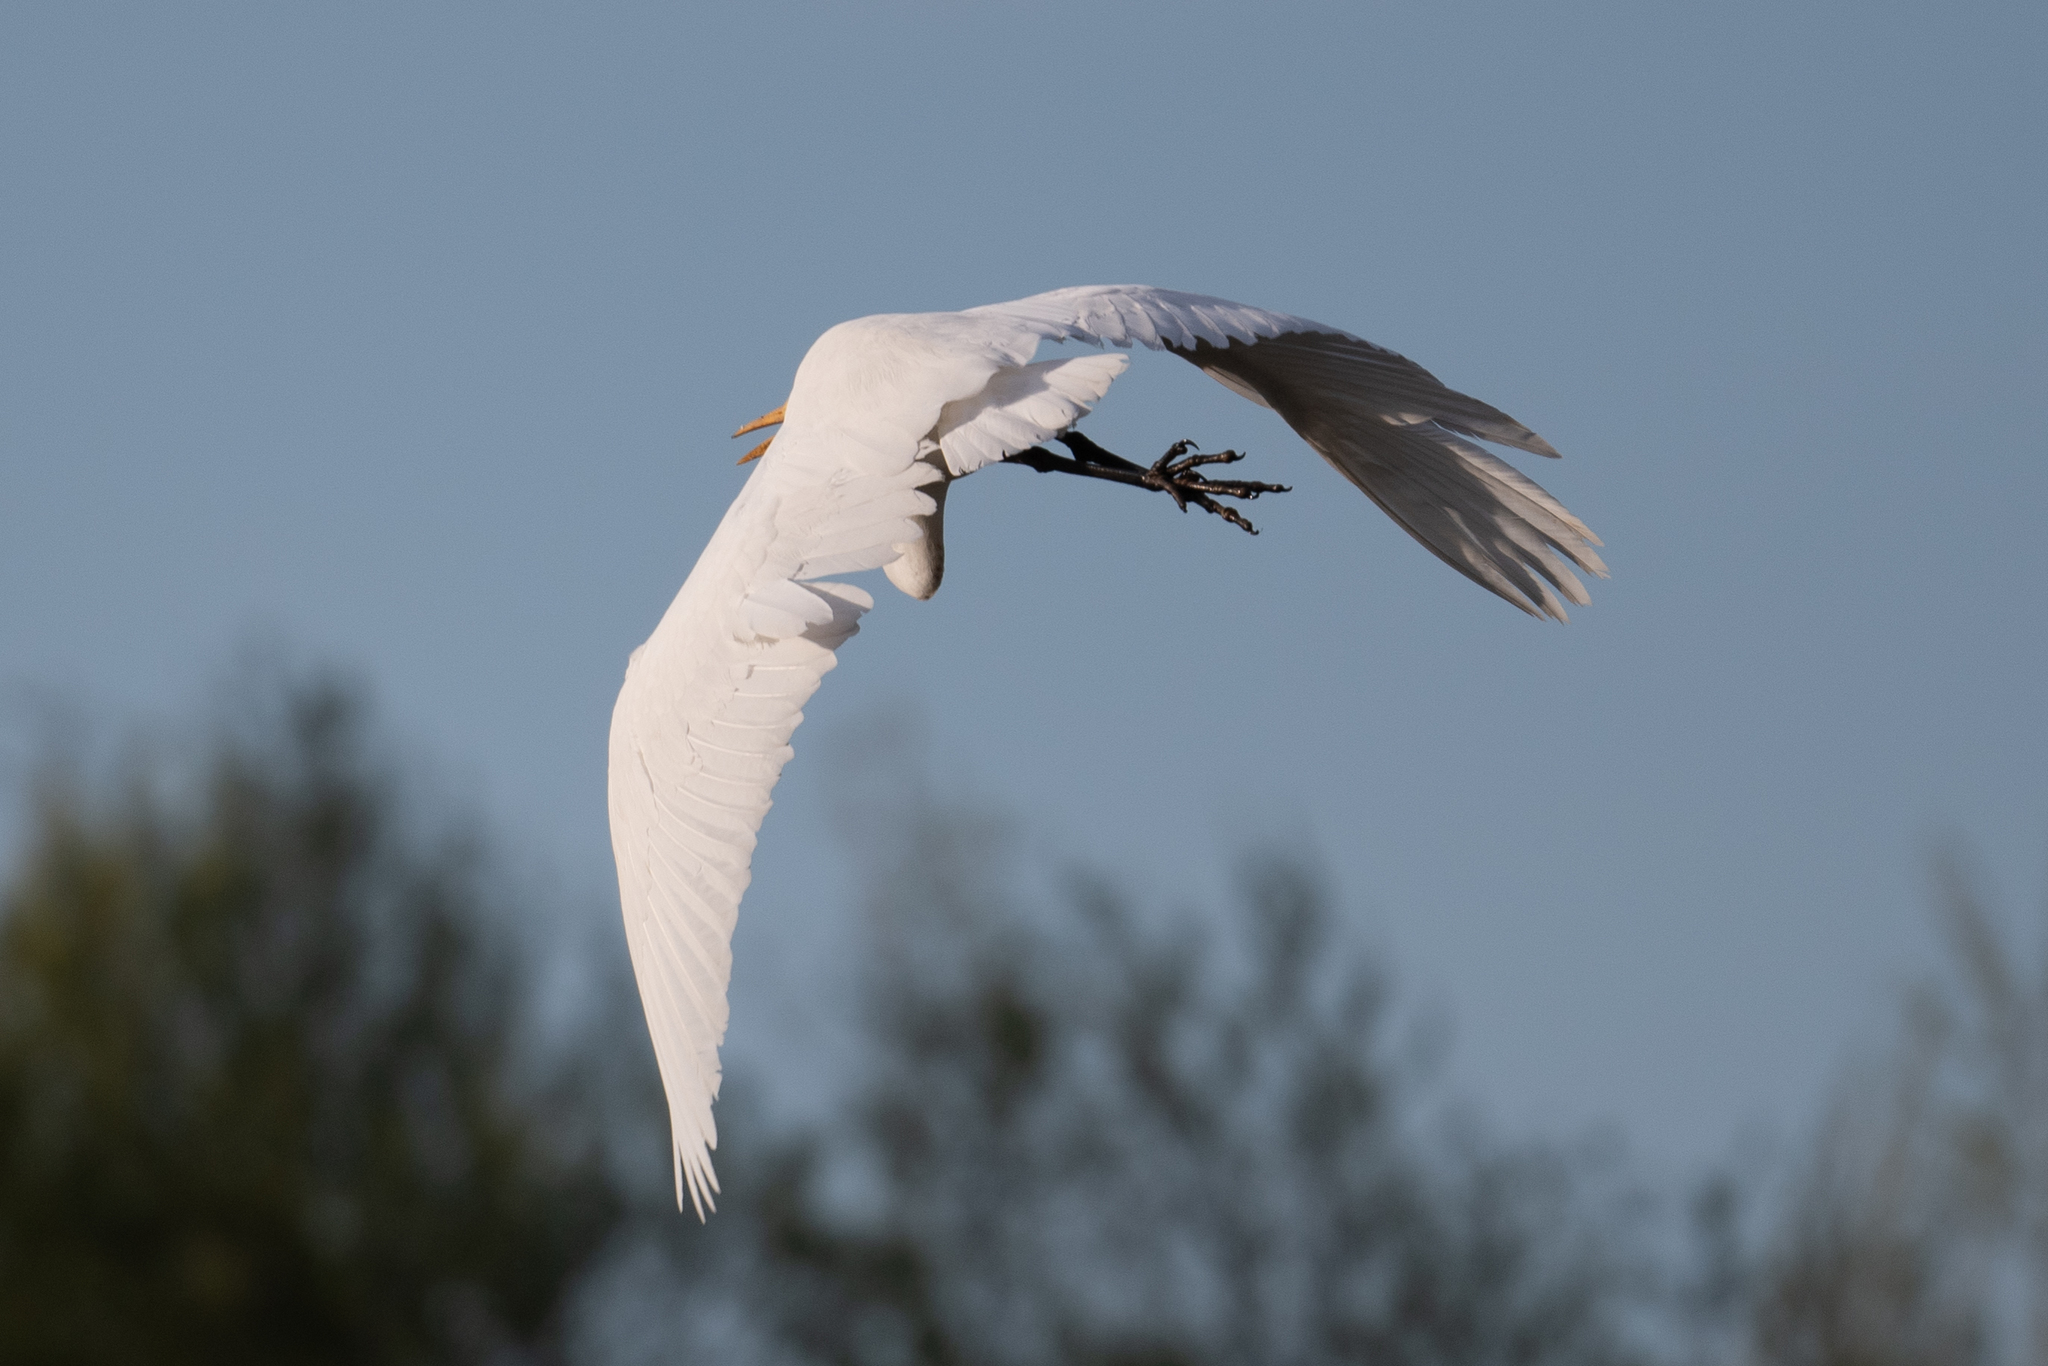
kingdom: Animalia
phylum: Chordata
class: Aves
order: Pelecaniformes
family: Ardeidae
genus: Ardea
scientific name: Ardea alba
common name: Great egret
